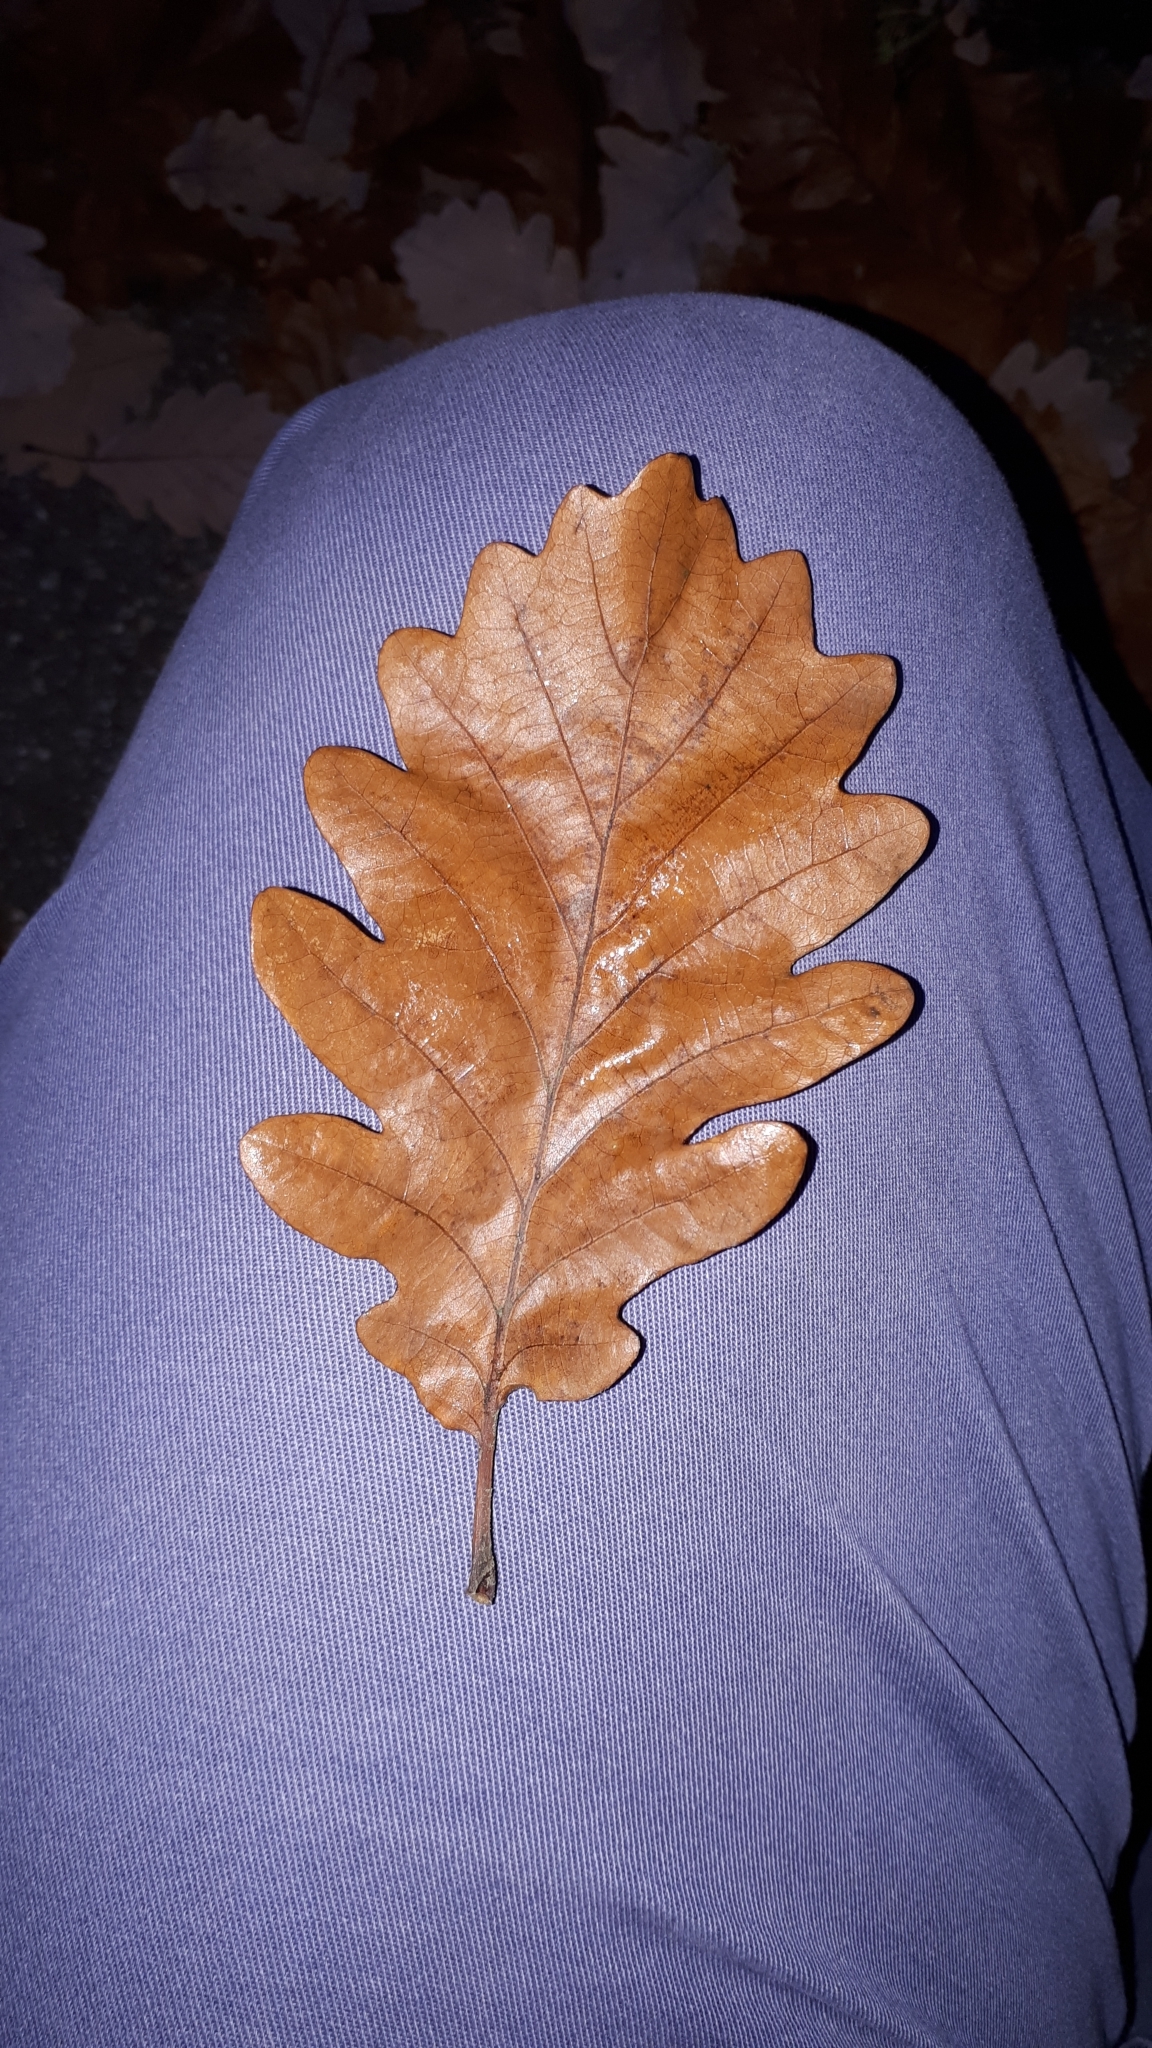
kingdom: Plantae
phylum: Tracheophyta
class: Magnoliopsida
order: Fagales
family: Fagaceae
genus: Quercus
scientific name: Quercus petraea
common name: Sessile oak
